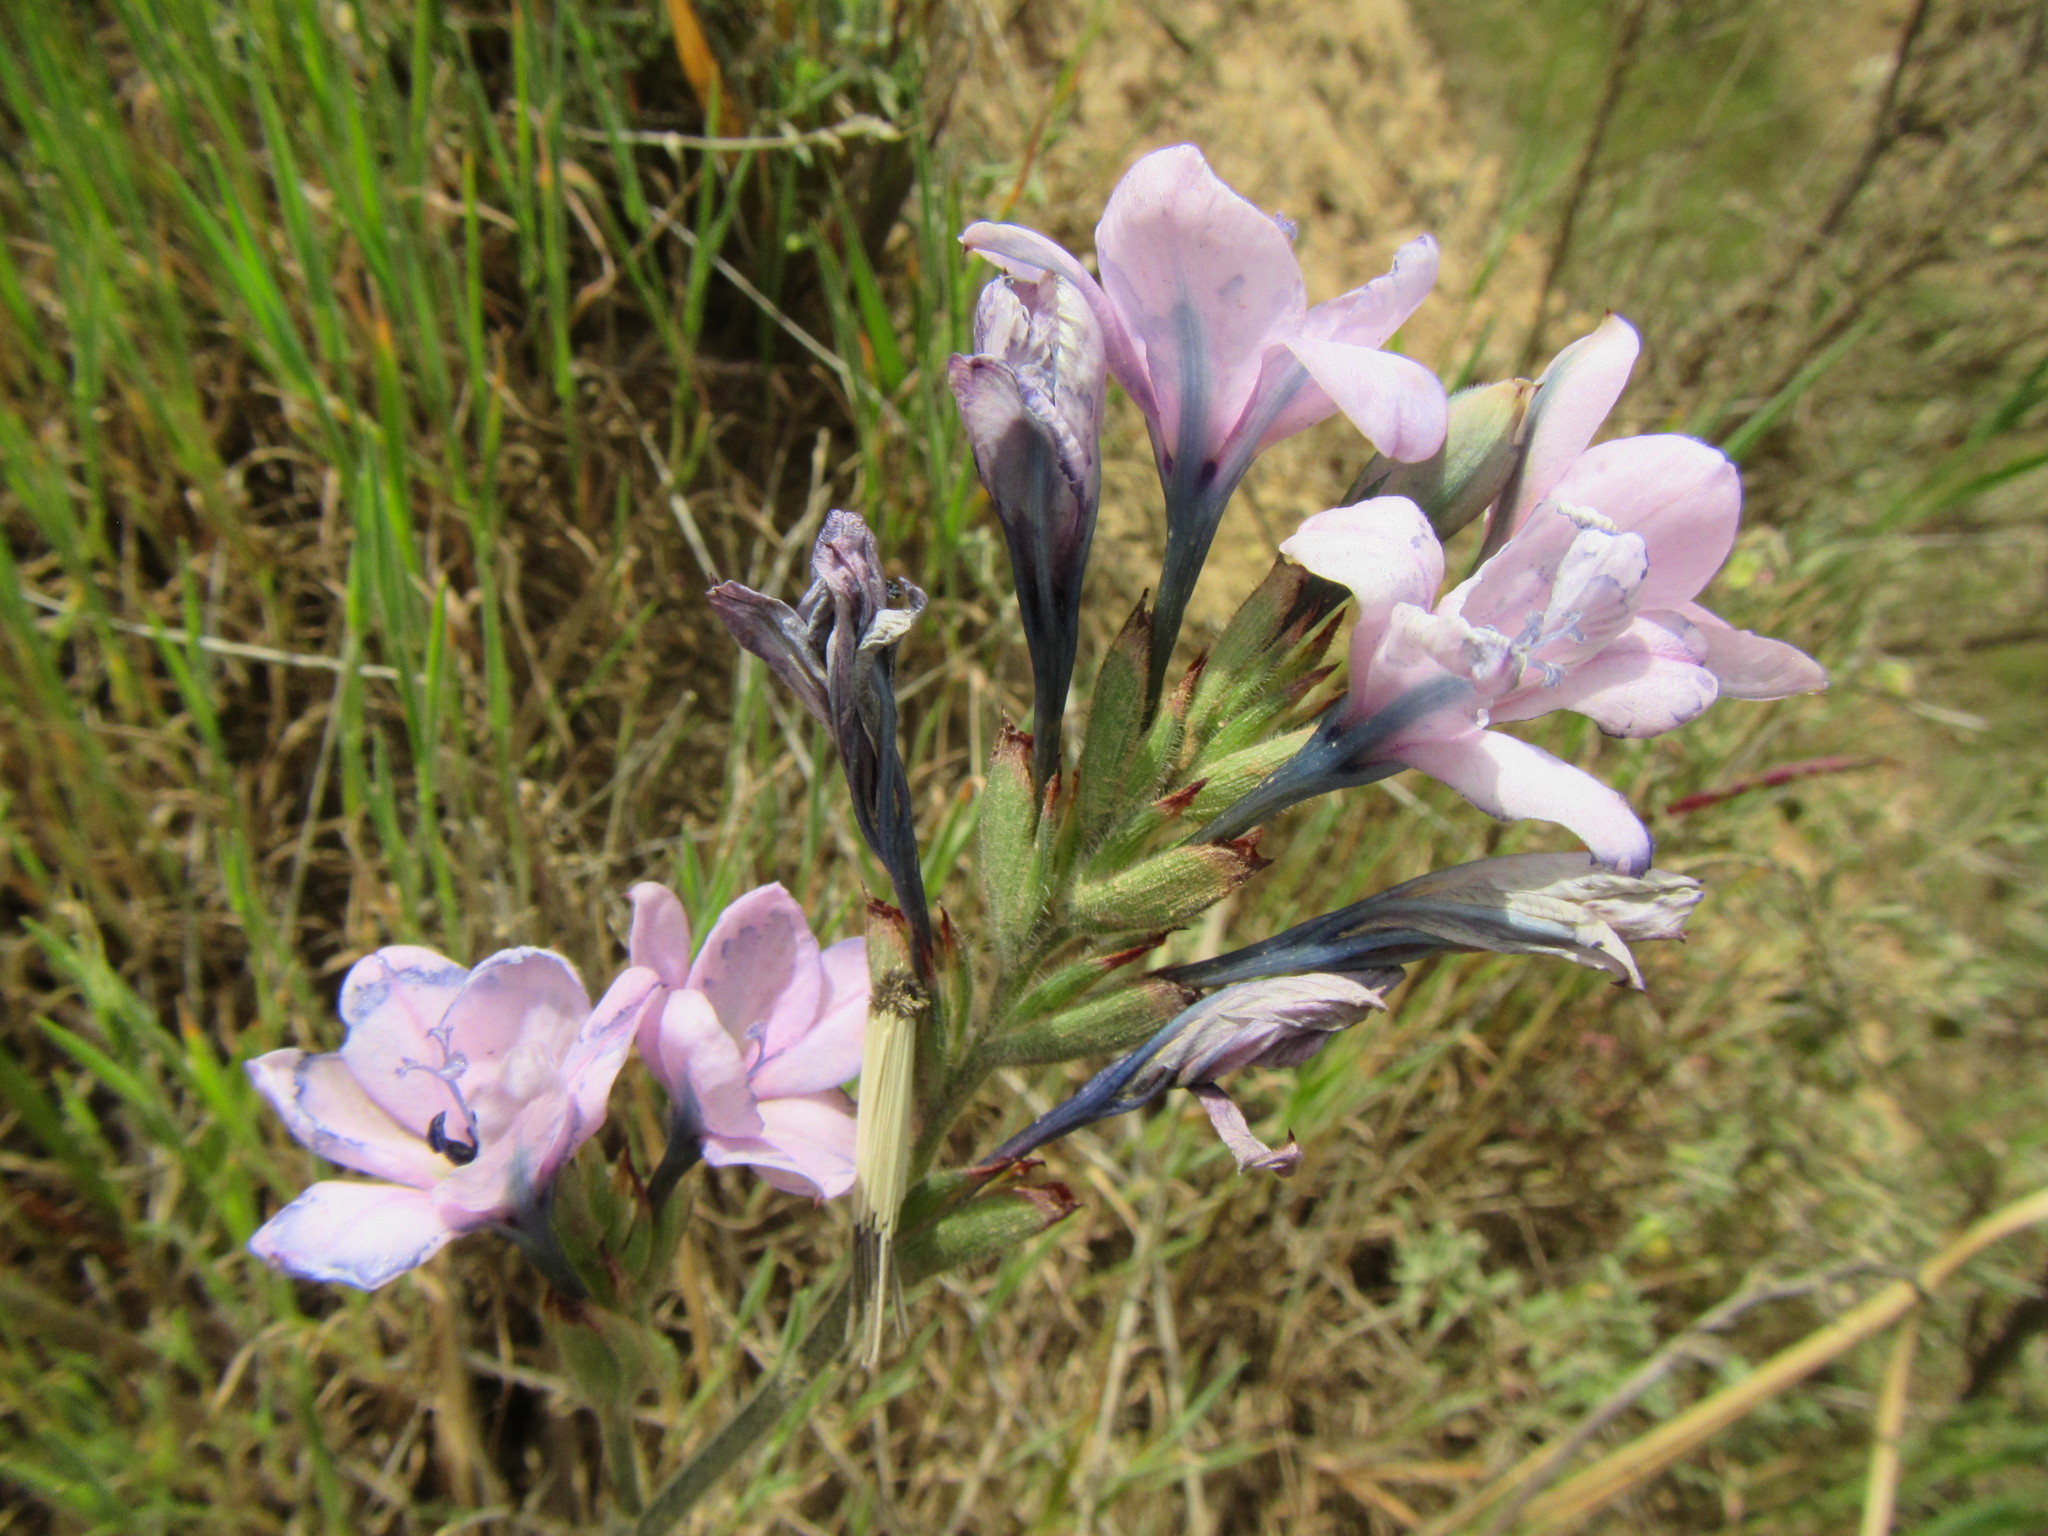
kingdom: Plantae
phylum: Tracheophyta
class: Liliopsida
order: Asparagales
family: Iridaceae
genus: Babiana
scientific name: Babiana purpurea
